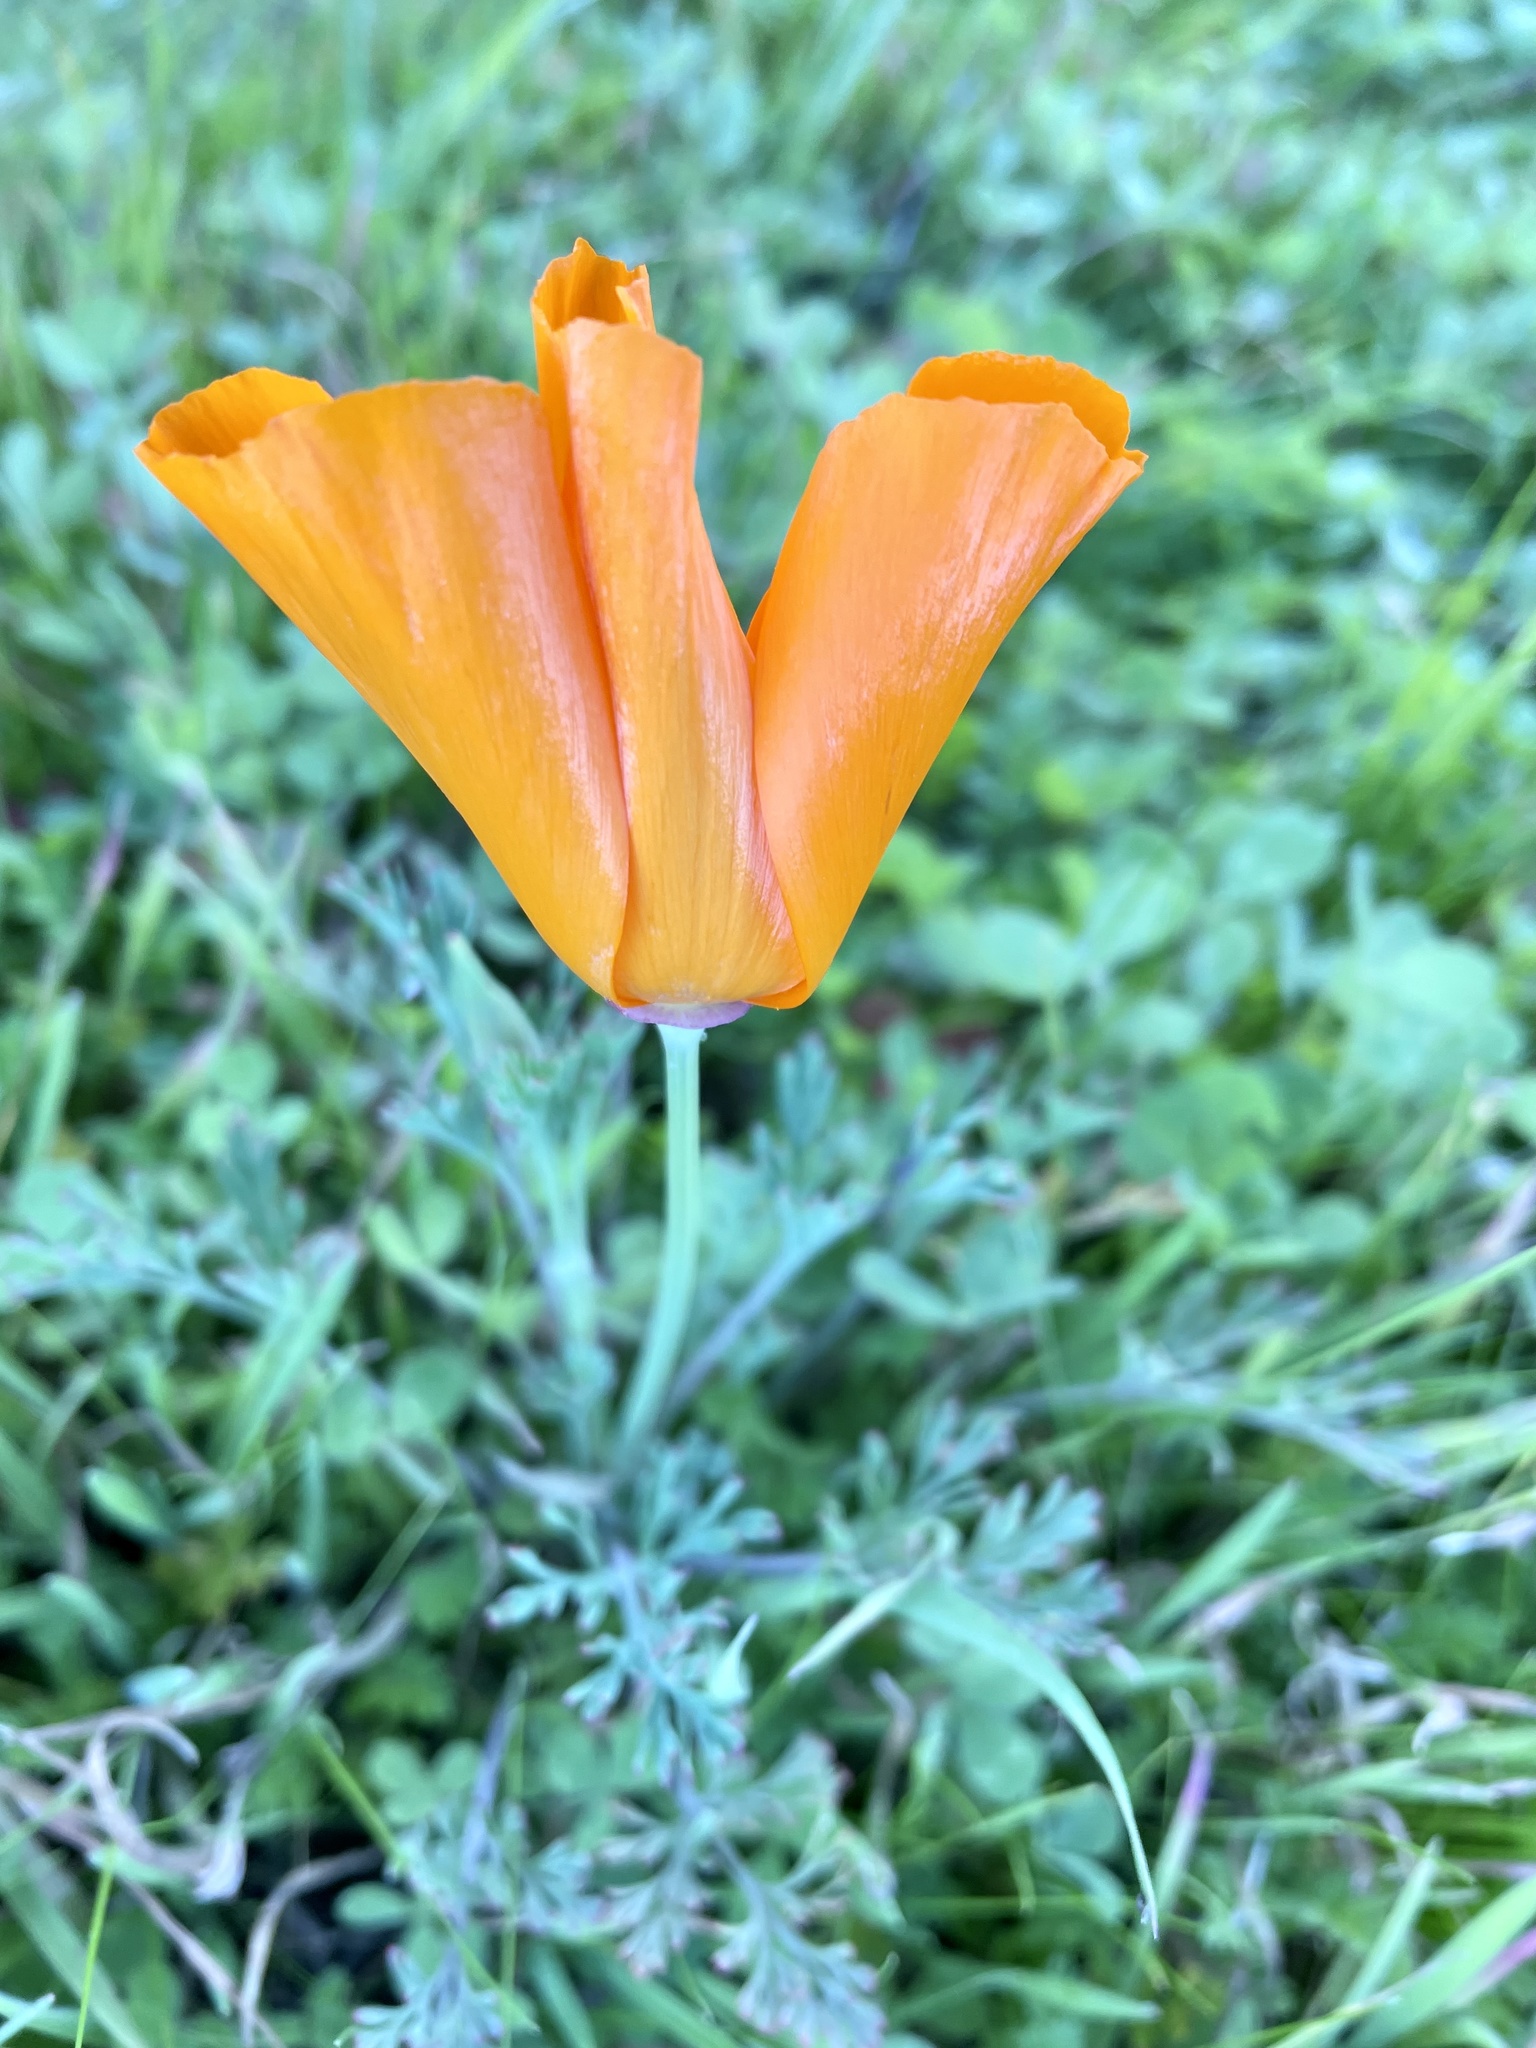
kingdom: Plantae
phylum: Tracheophyta
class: Magnoliopsida
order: Ranunculales
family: Papaveraceae
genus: Eschscholzia
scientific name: Eschscholzia californica
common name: California poppy
